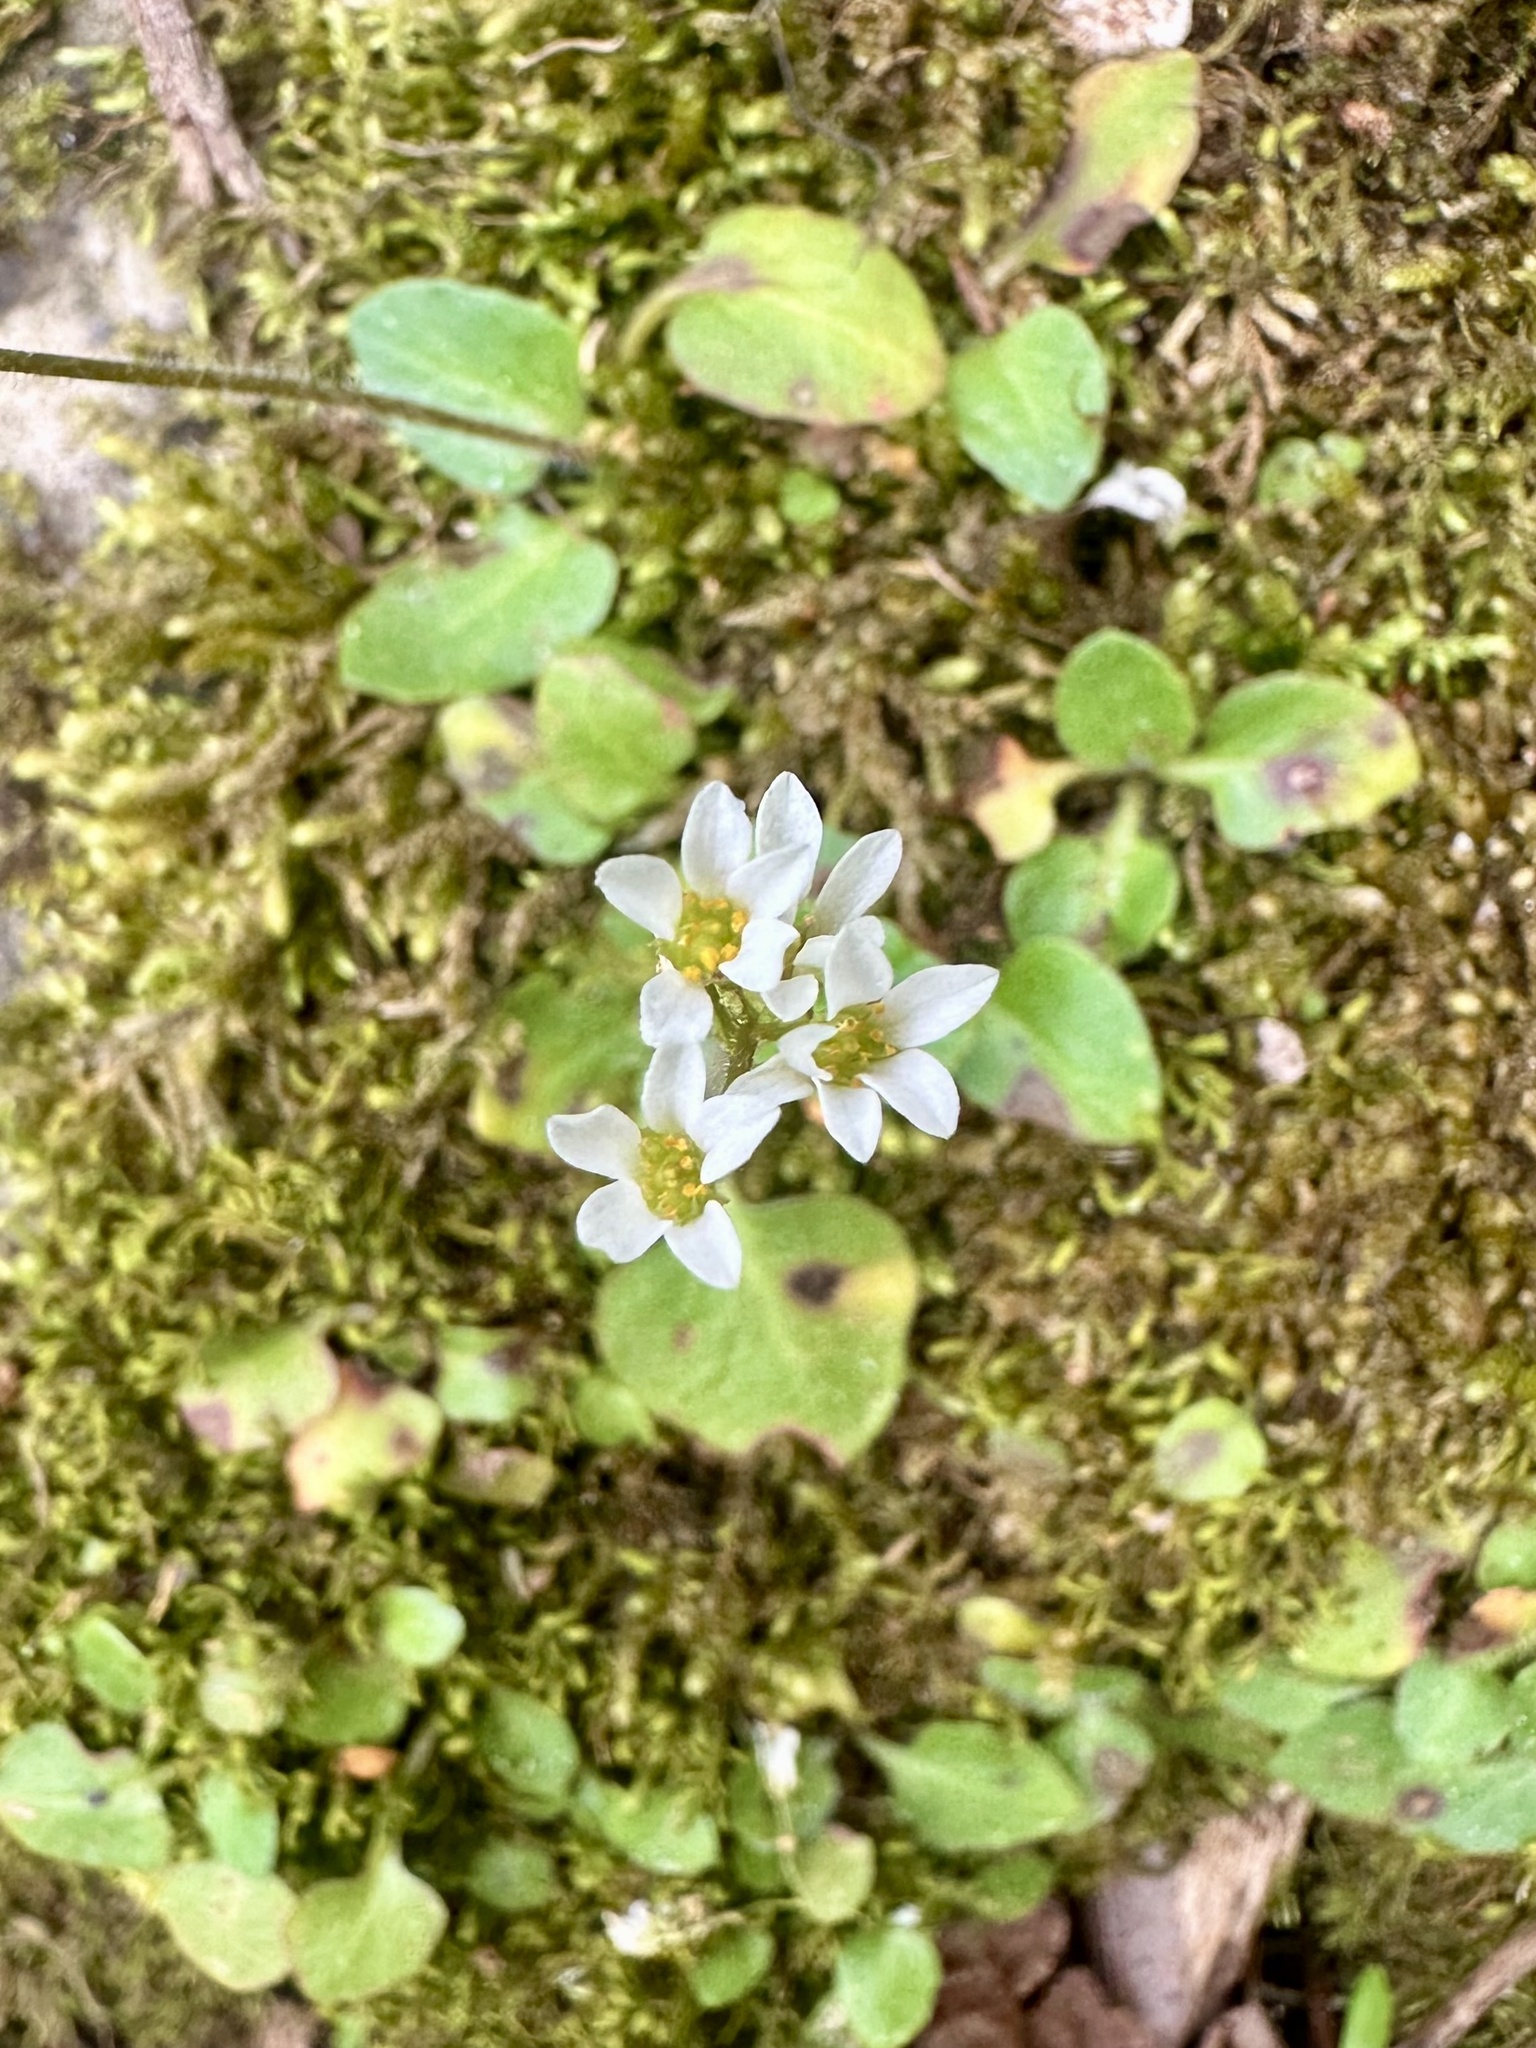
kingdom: Plantae
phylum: Tracheophyta
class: Magnoliopsida
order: Saxifragales
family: Saxifragaceae
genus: Micranthes
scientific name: Micranthes palmeri
